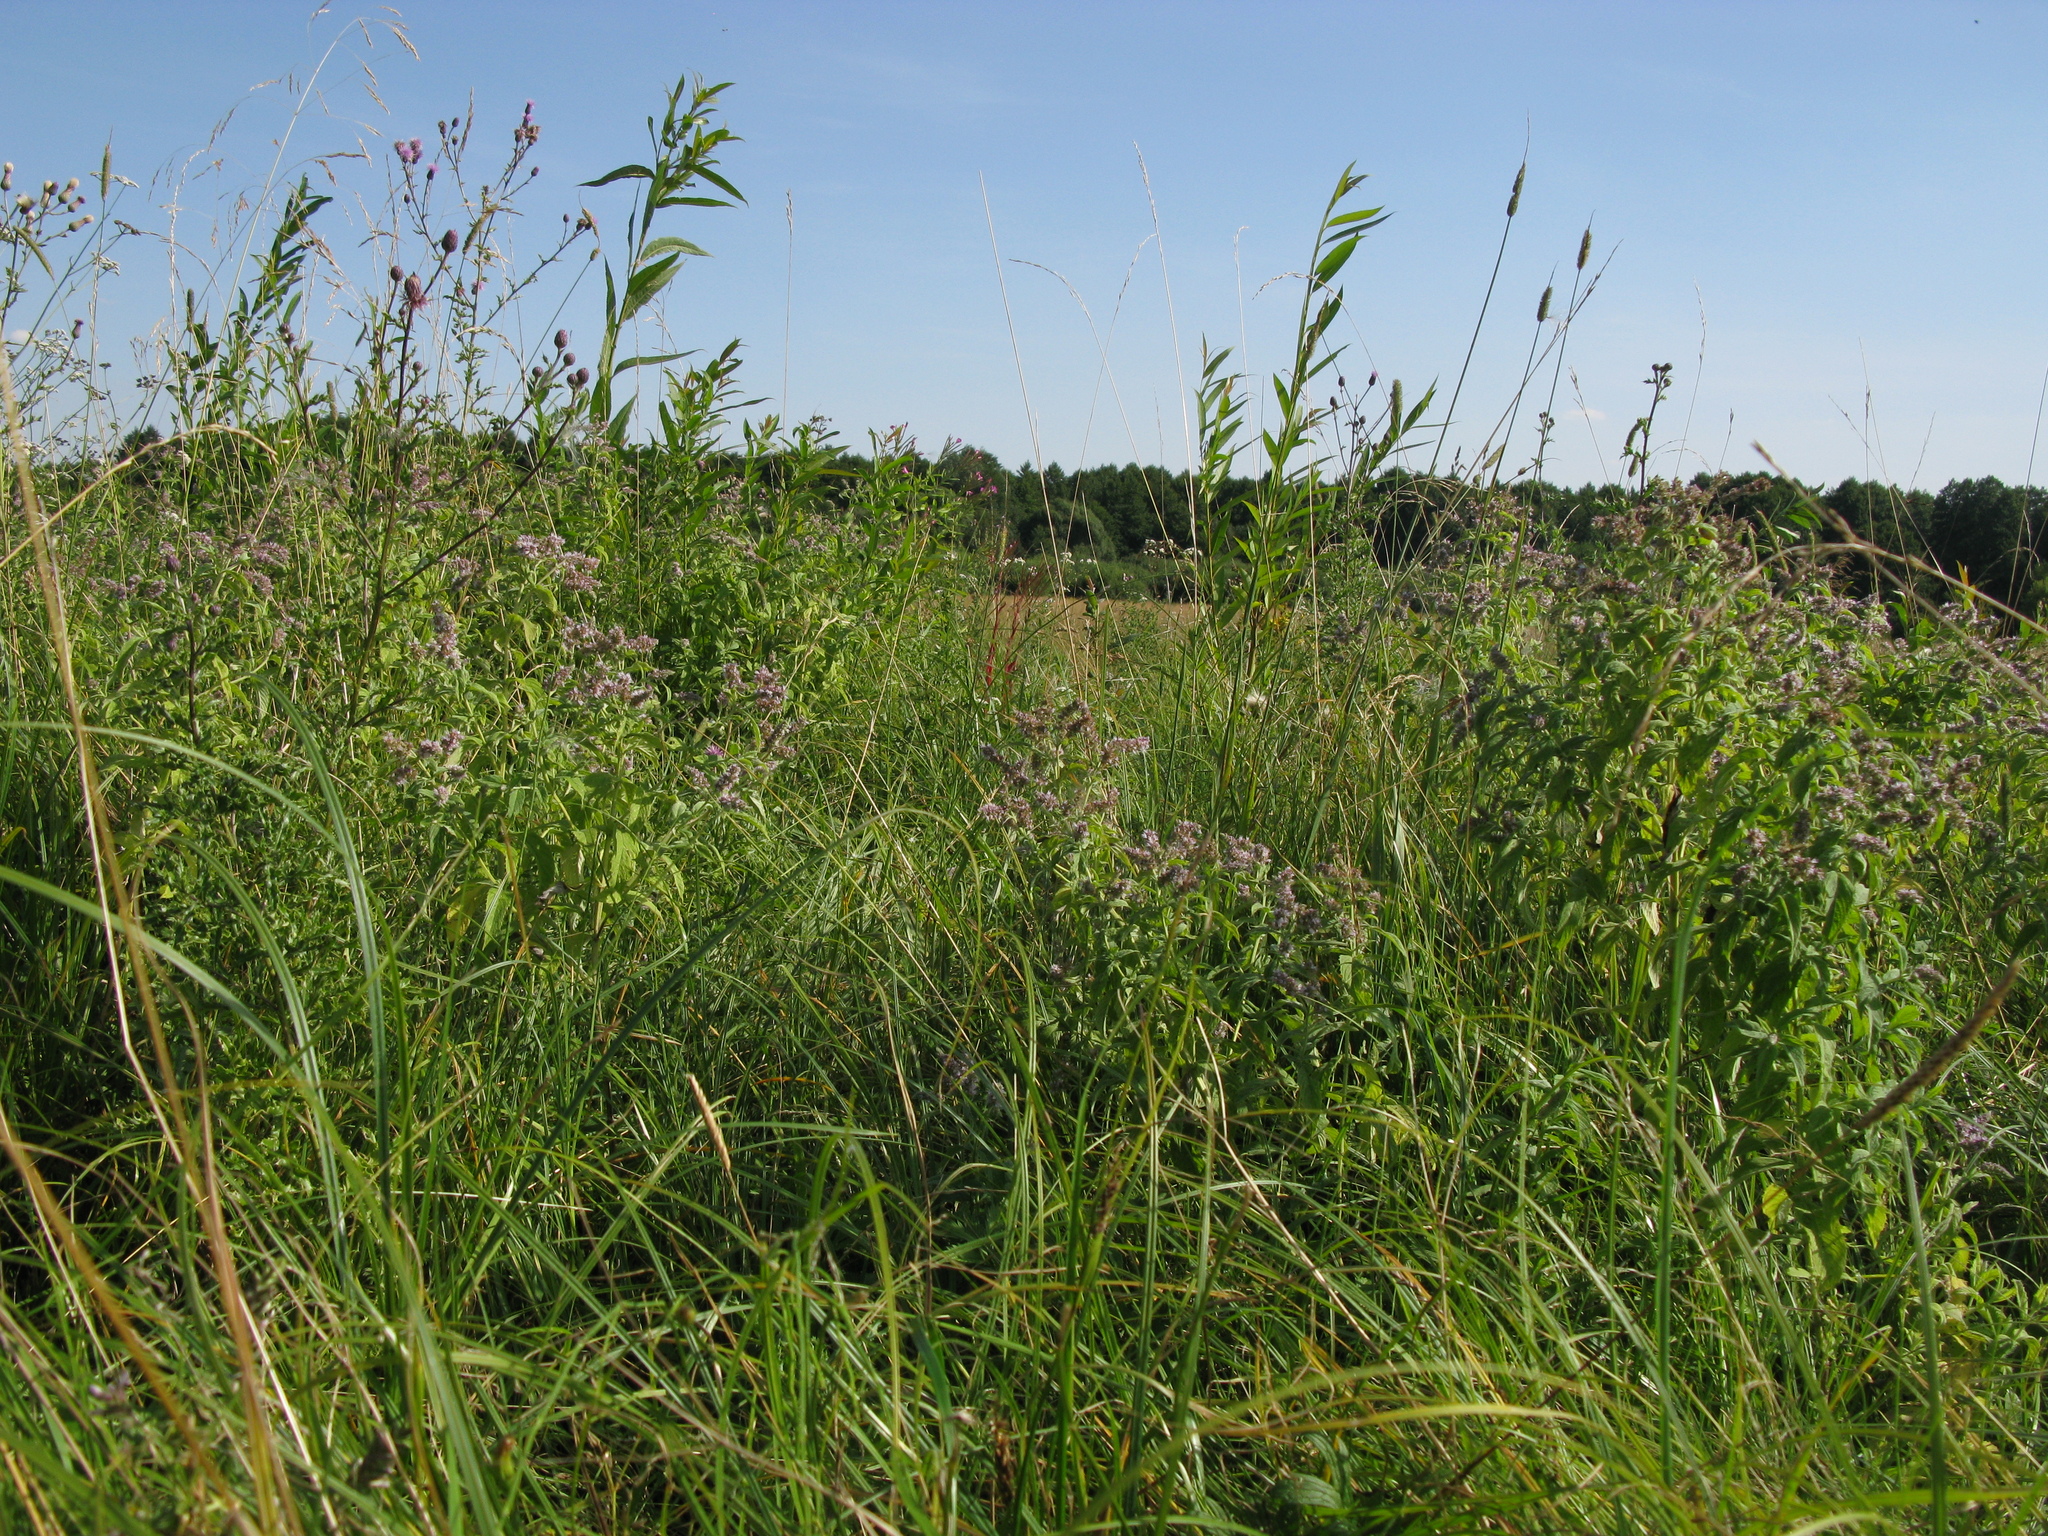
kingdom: Plantae
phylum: Tracheophyta
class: Magnoliopsida
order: Lamiales
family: Lamiaceae
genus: Mentha
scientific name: Mentha longifolia
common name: Horse mint
